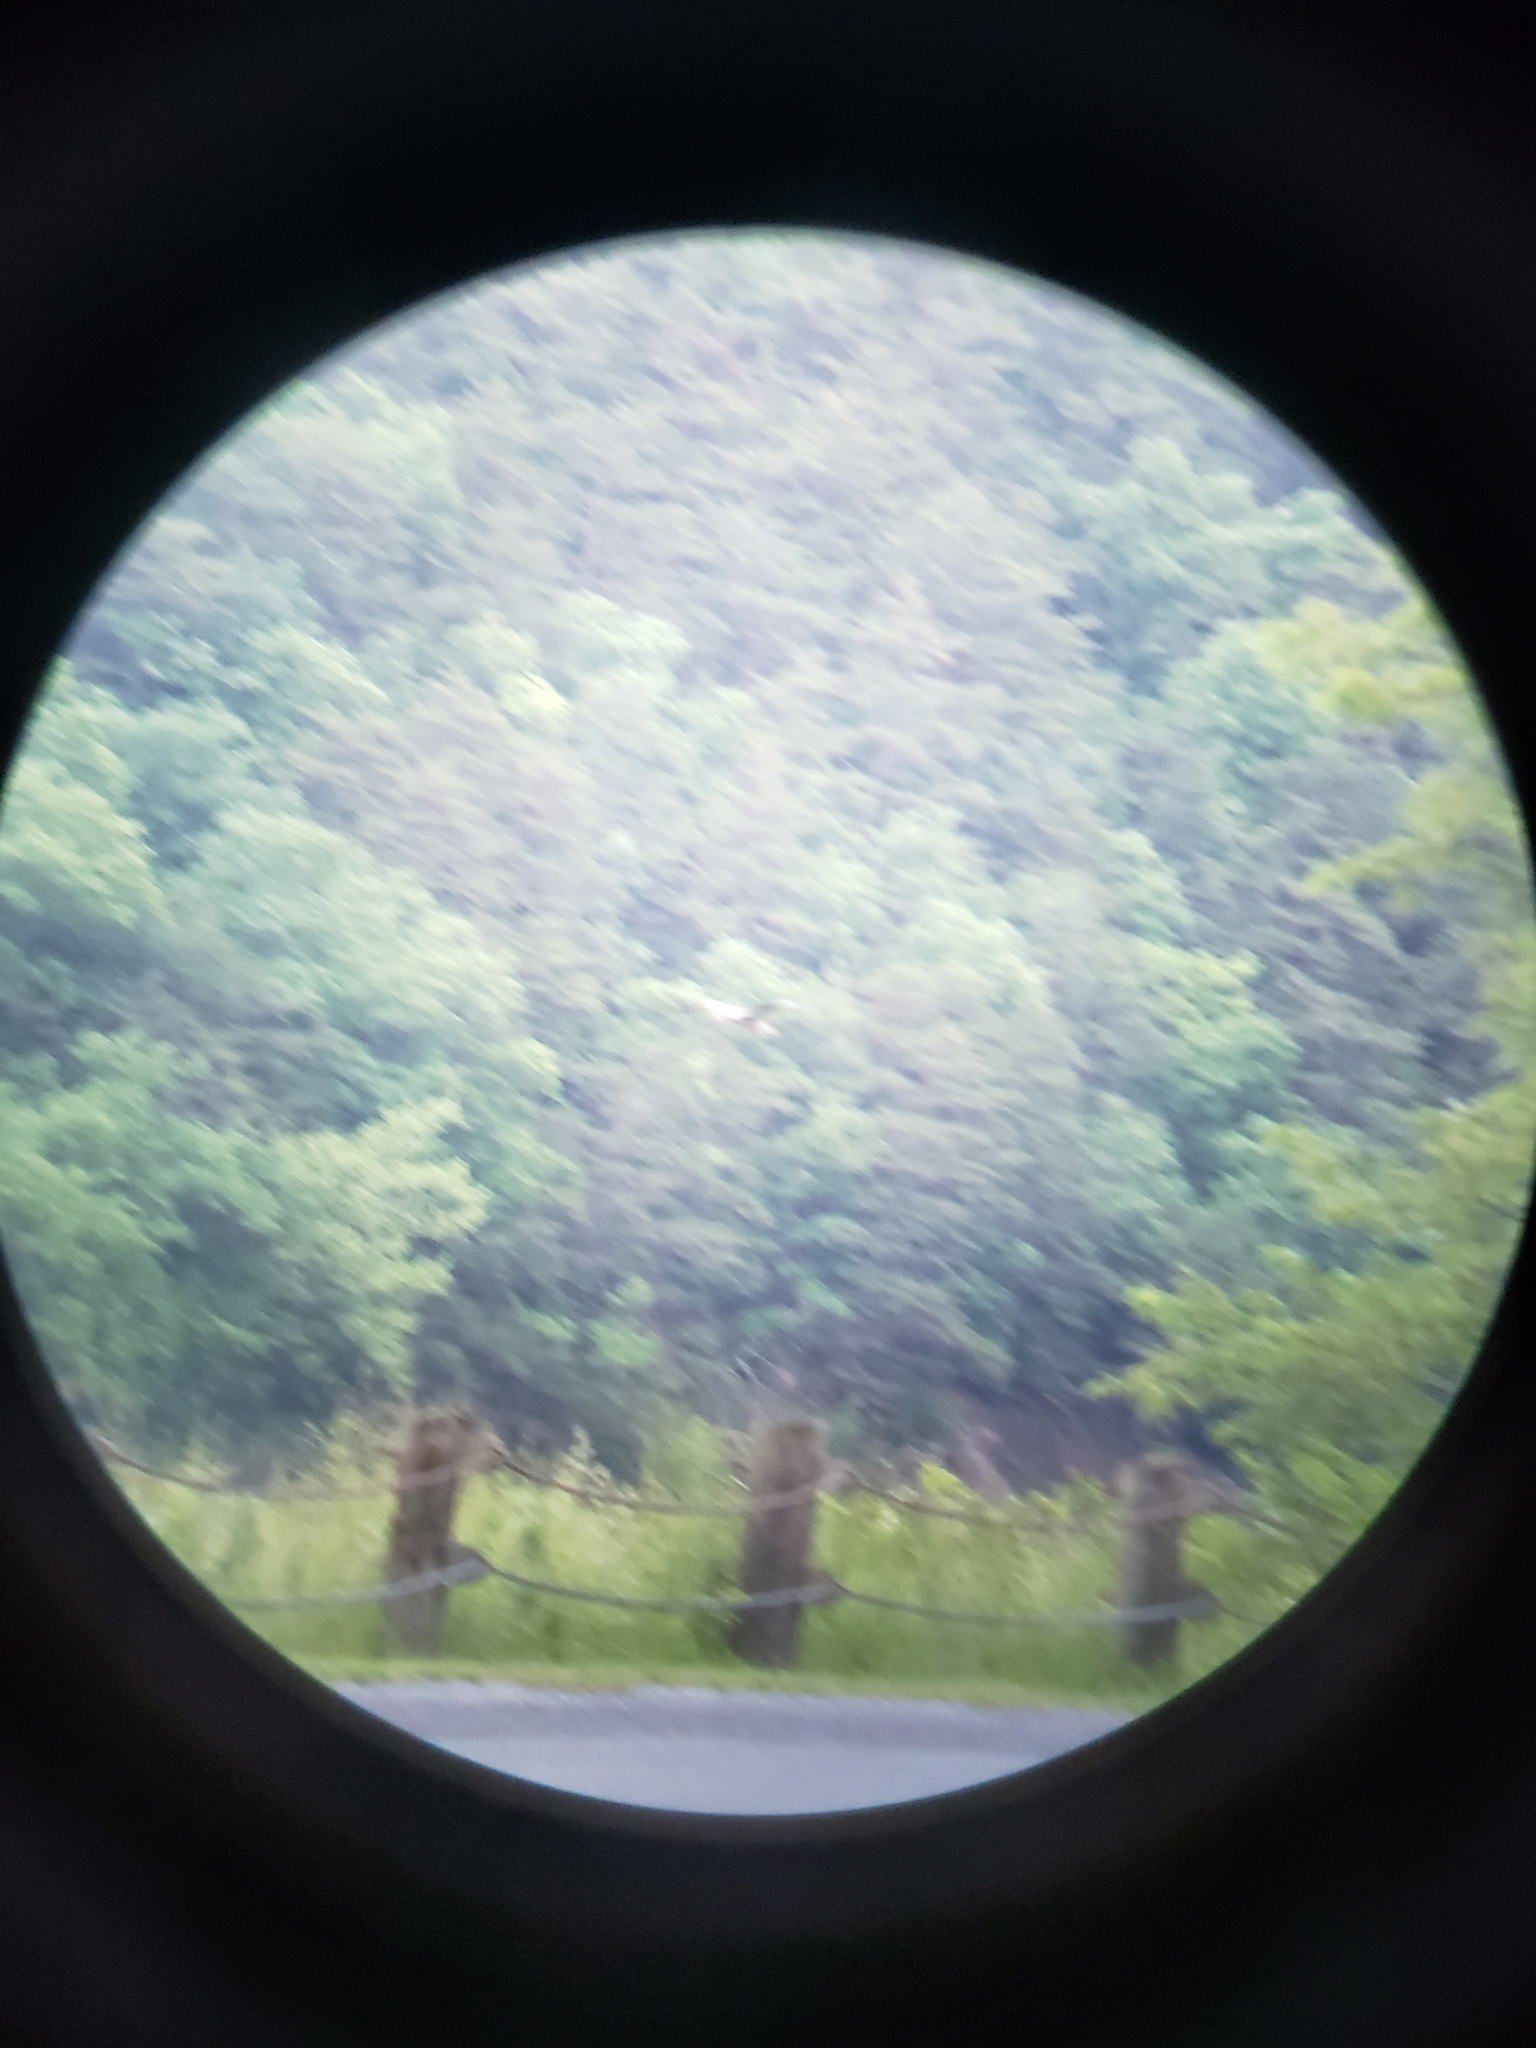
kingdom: Animalia
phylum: Chordata
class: Aves
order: Pelecaniformes
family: Ardeidae
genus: Ardea
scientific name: Ardea herodias
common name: Great blue heron
